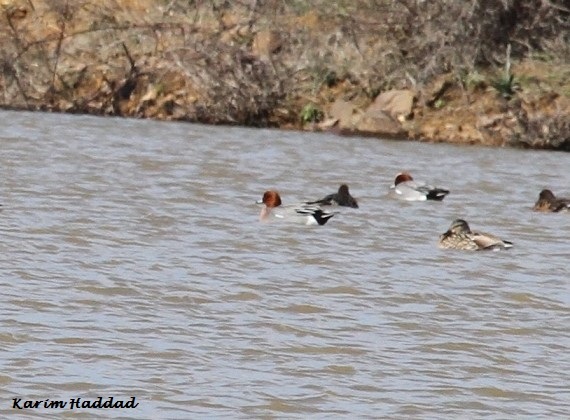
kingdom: Animalia
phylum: Chordata
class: Aves
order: Anseriformes
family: Anatidae
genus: Mareca
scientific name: Mareca penelope
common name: Eurasian wigeon
